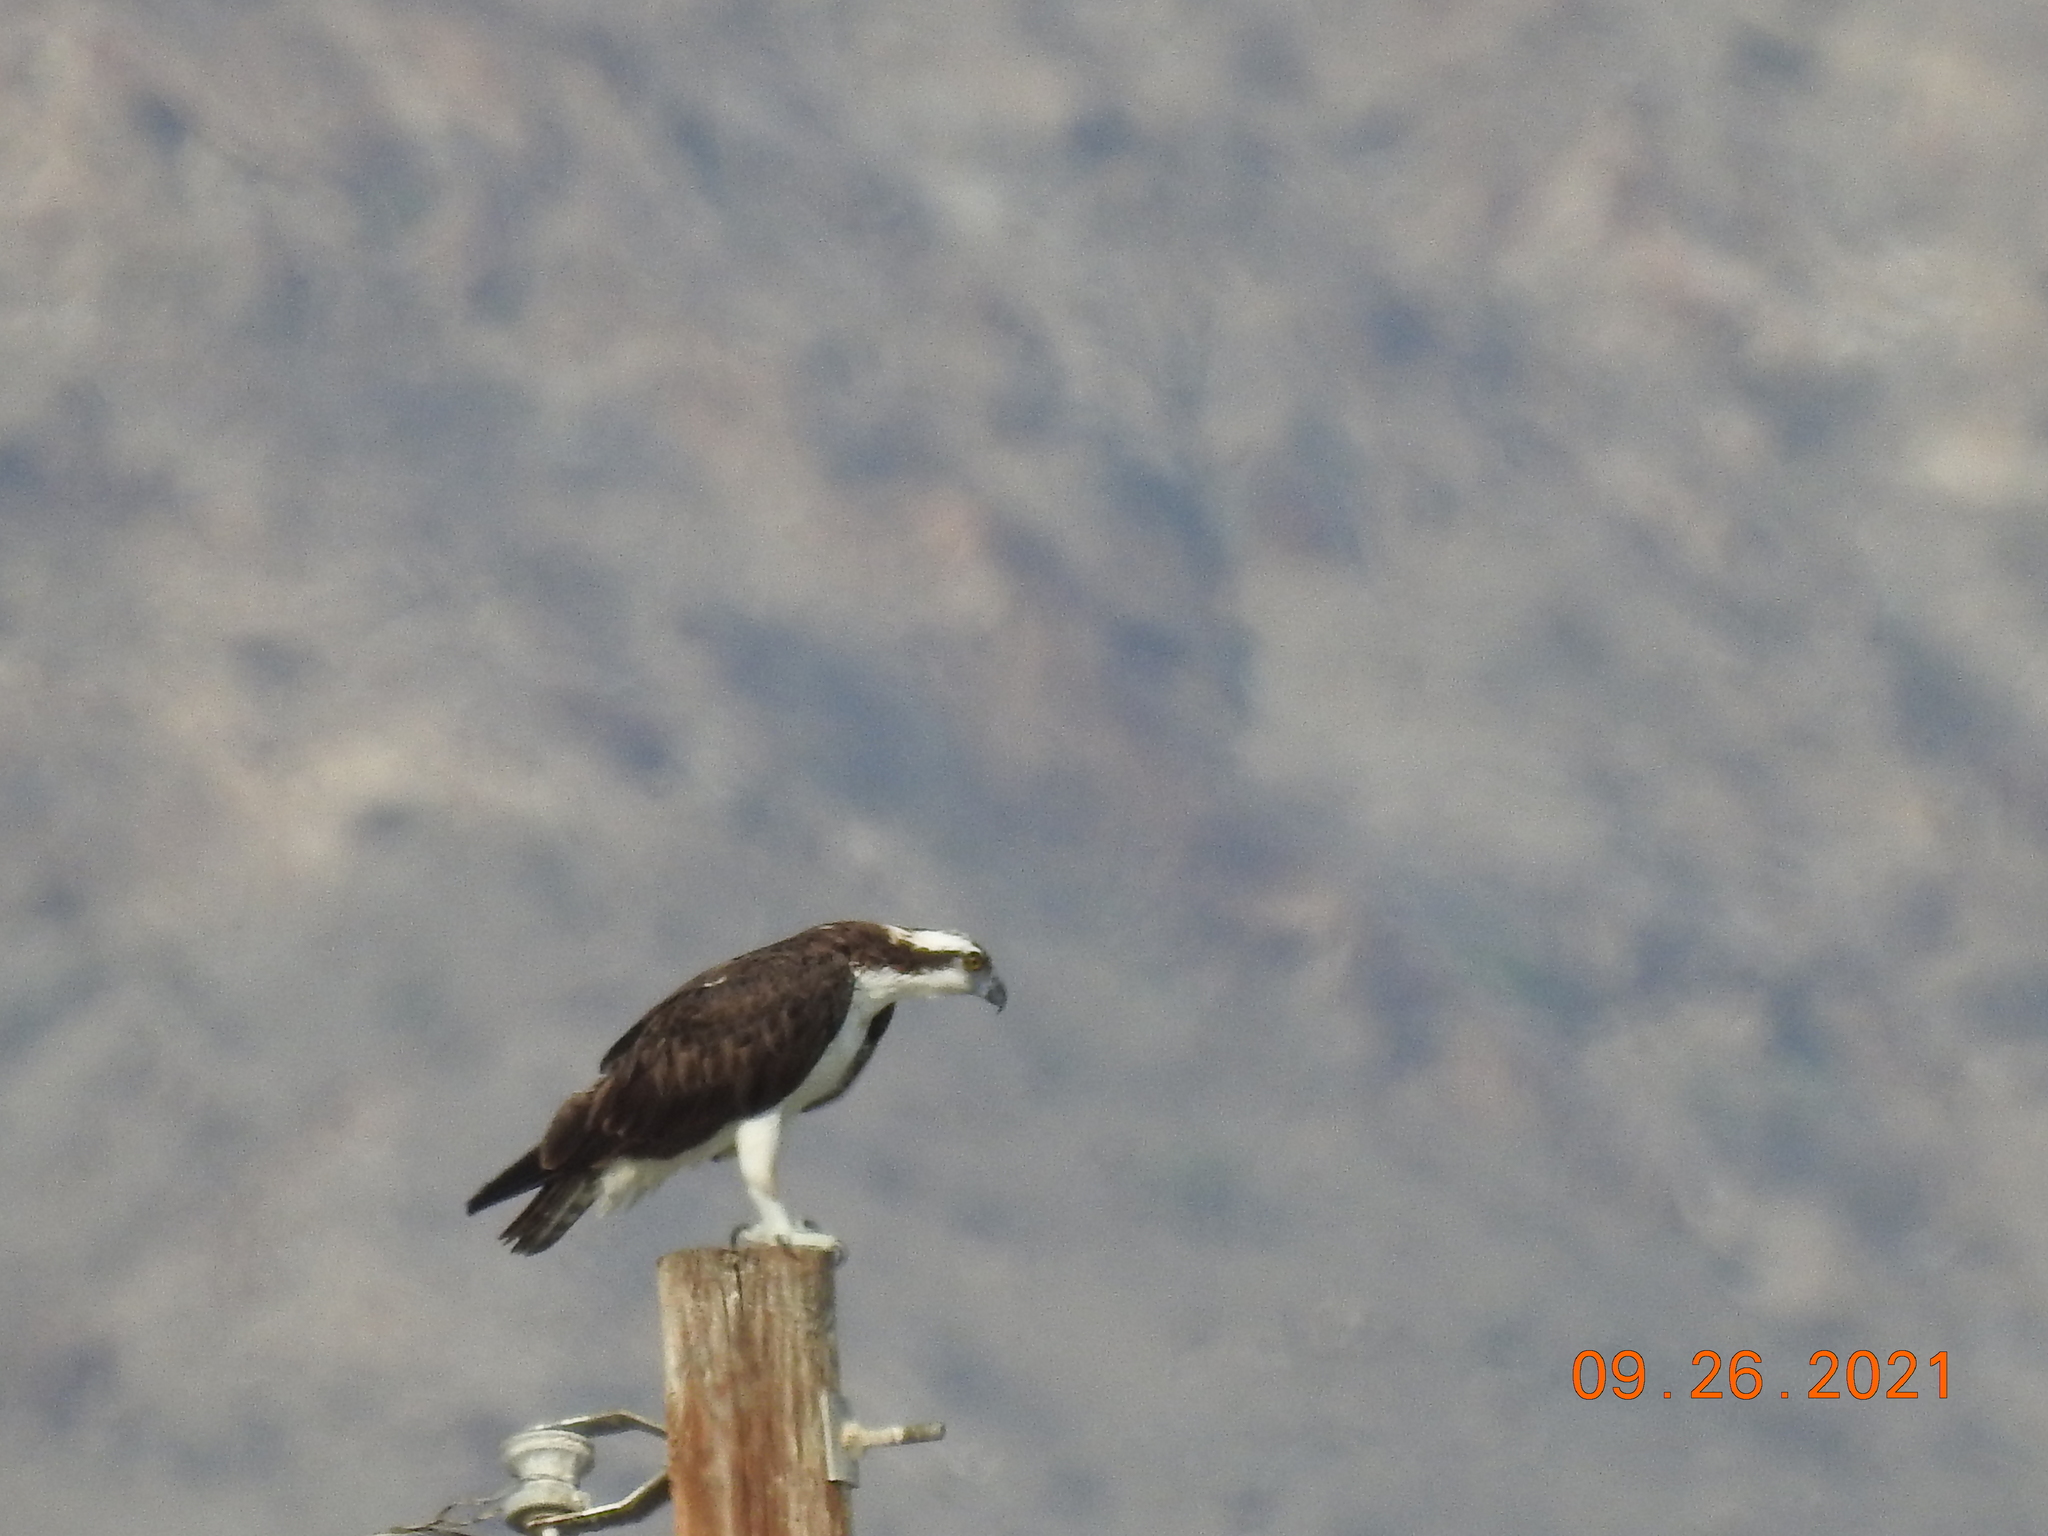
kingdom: Animalia
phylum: Chordata
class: Aves
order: Accipitriformes
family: Pandionidae
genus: Pandion
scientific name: Pandion haliaetus
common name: Osprey
